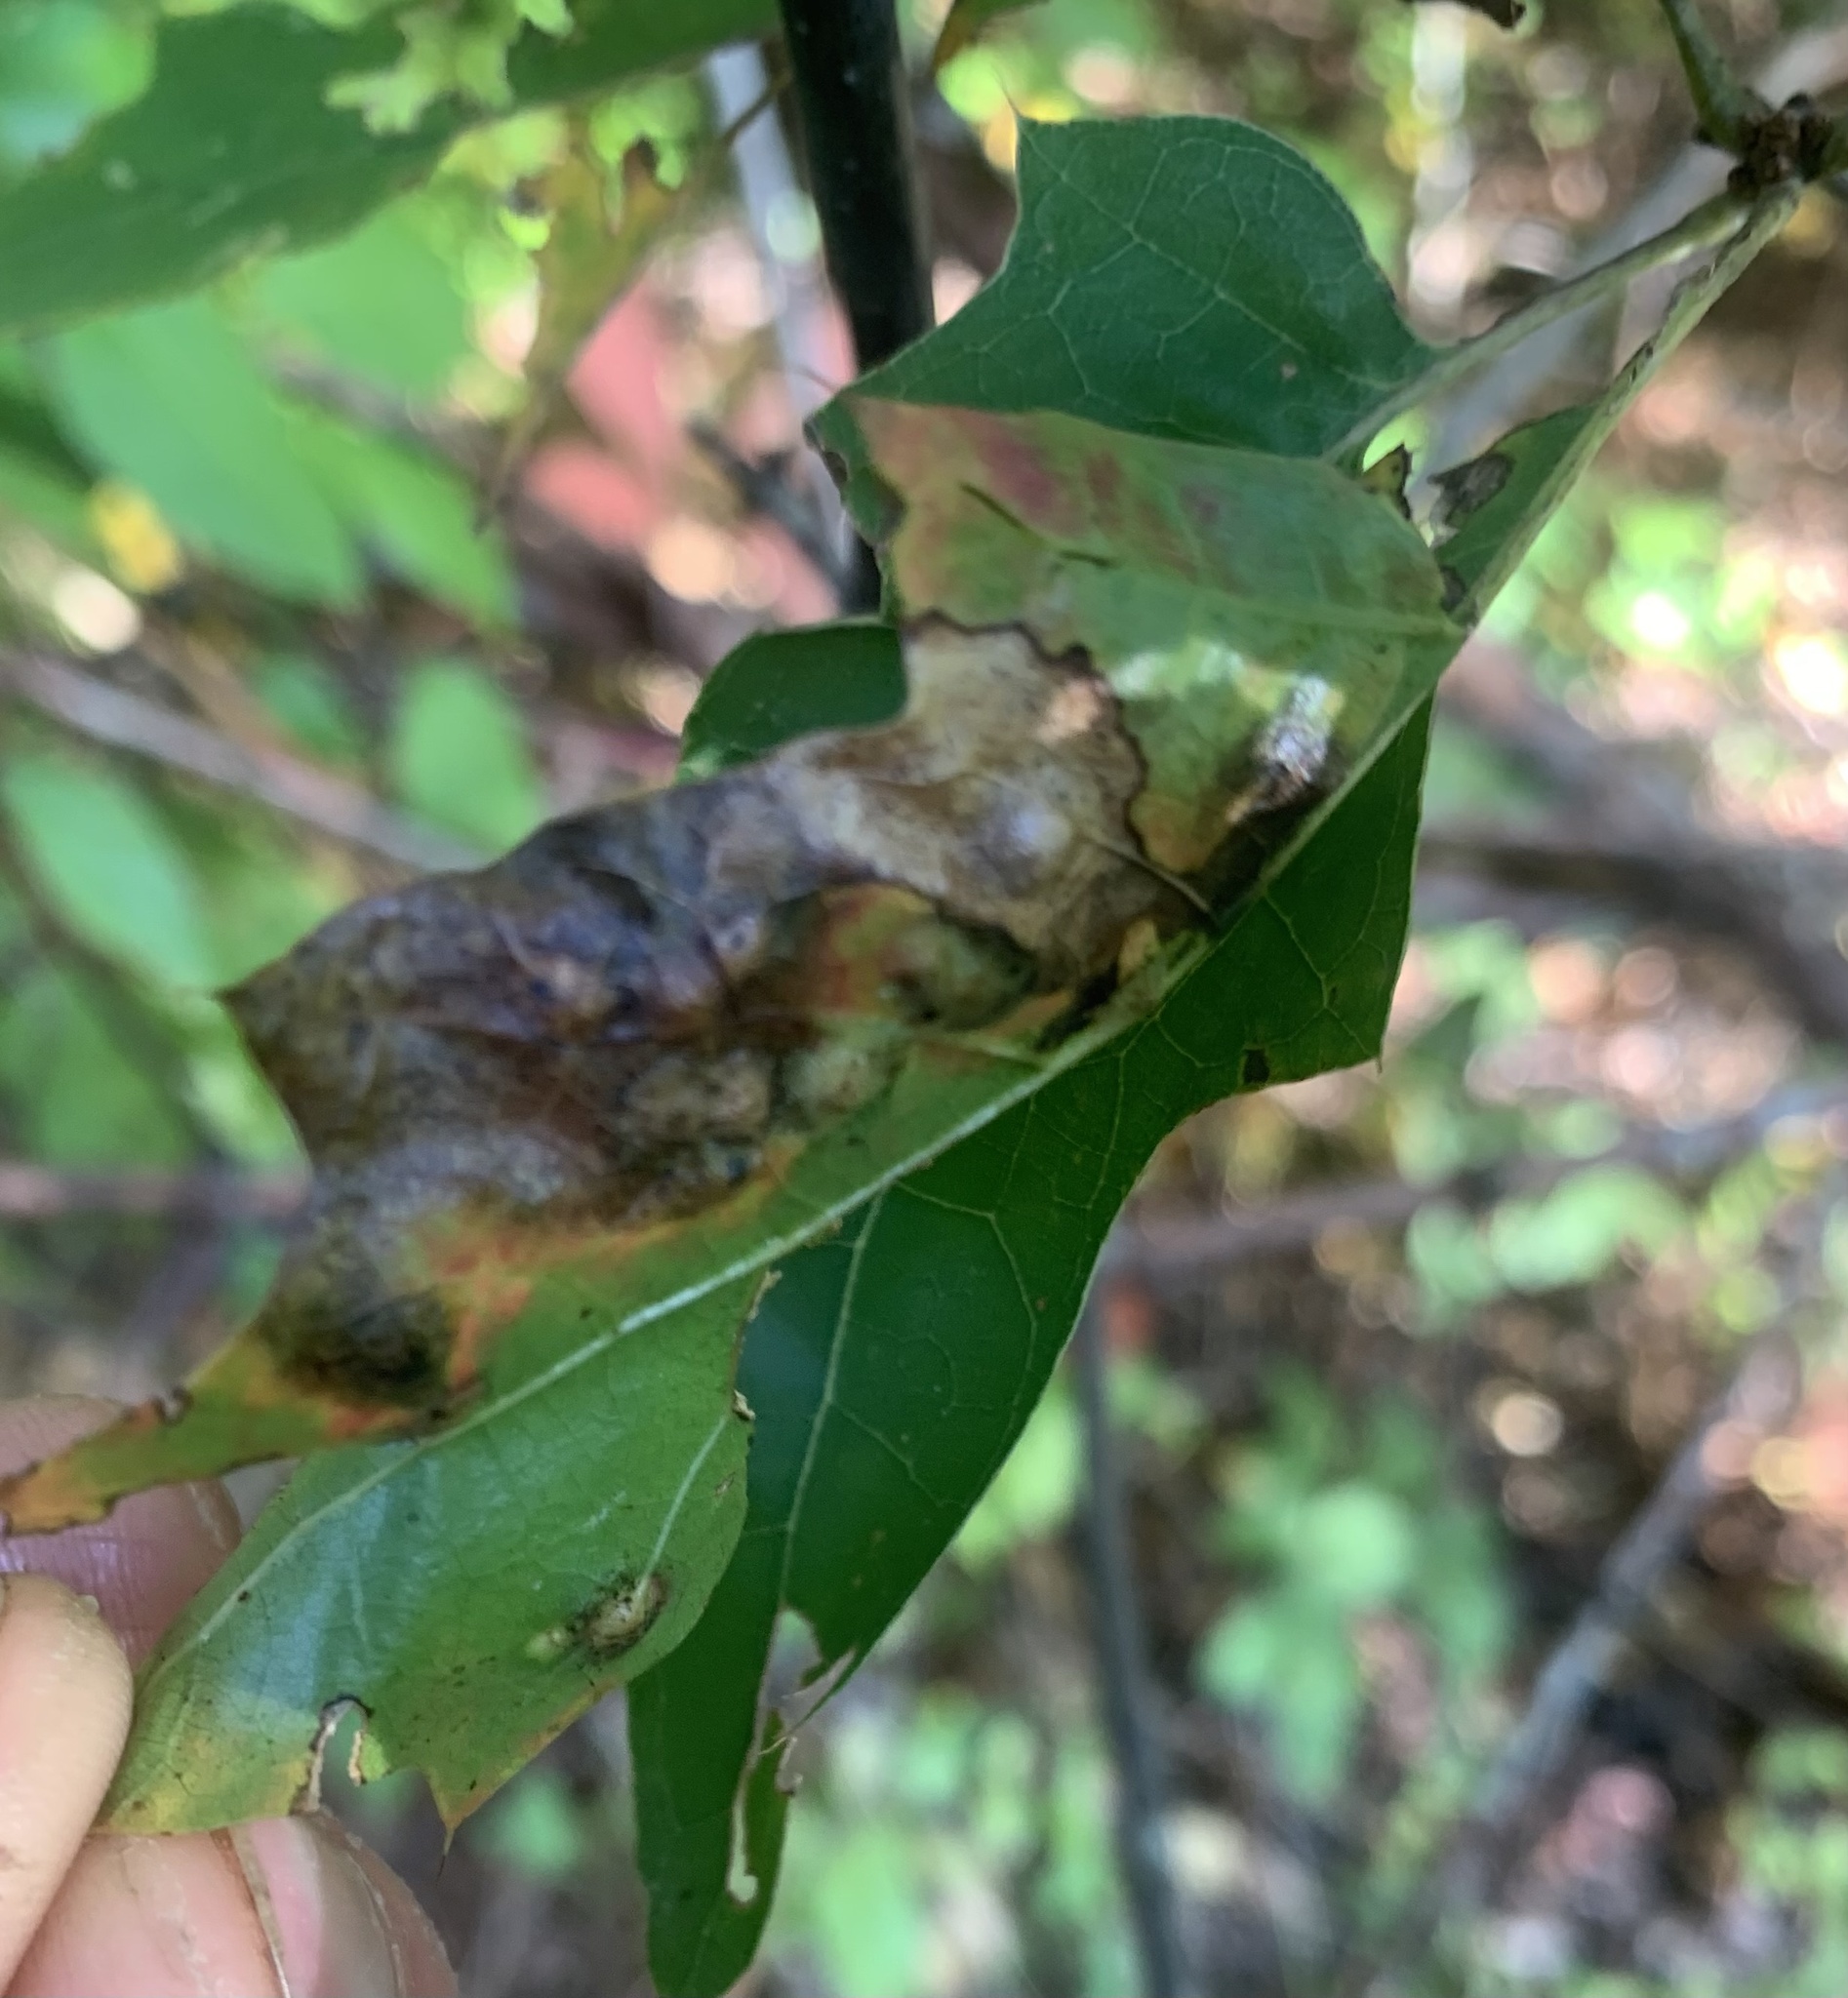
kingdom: Animalia
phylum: Arthropoda
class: Insecta
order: Diptera
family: Cecidomyiidae
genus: Polystepha
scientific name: Polystepha pilulae
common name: Oak leaf gall midge
